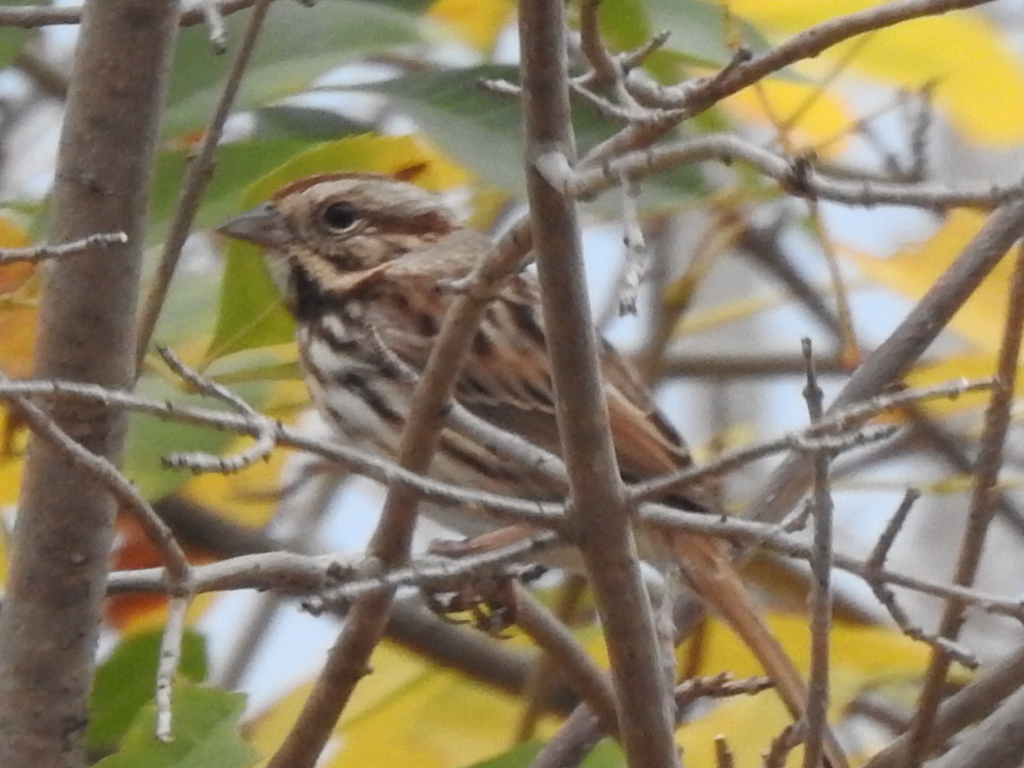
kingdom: Animalia
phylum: Chordata
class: Aves
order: Passeriformes
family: Passerellidae
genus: Melospiza
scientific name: Melospiza melodia
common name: Song sparrow
